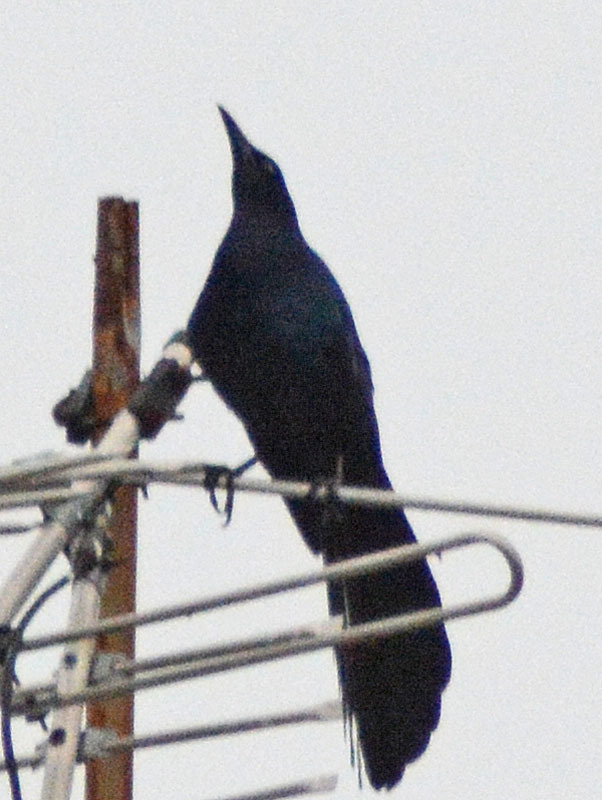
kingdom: Animalia
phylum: Chordata
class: Aves
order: Passeriformes
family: Icteridae
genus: Quiscalus
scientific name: Quiscalus mexicanus
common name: Great-tailed grackle
